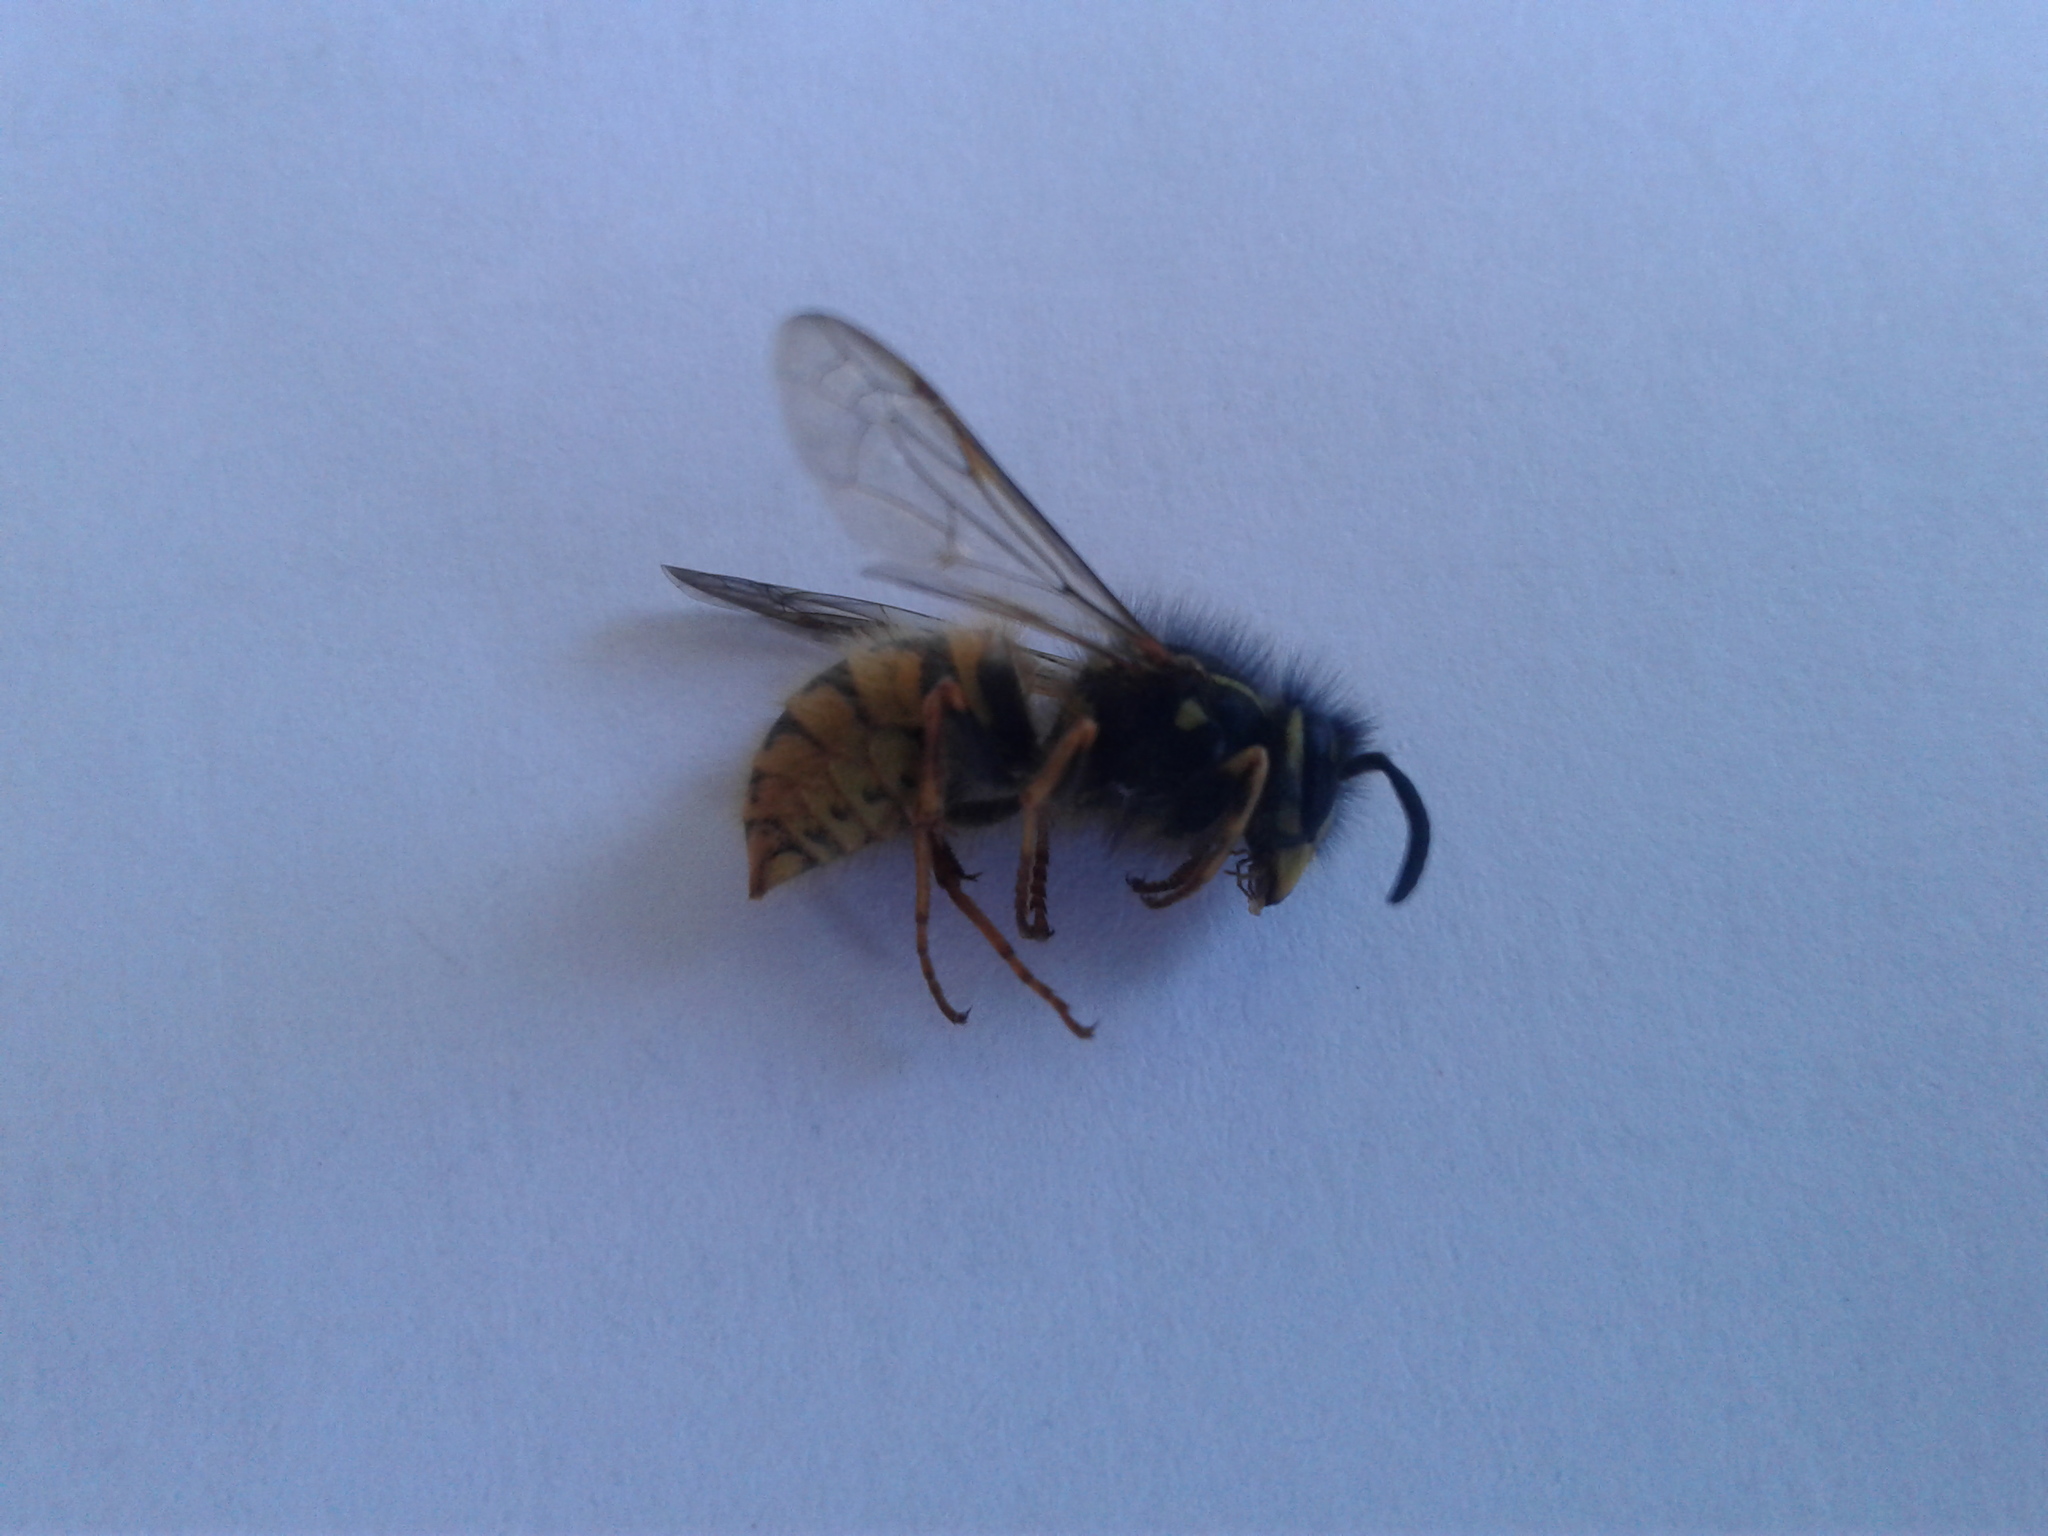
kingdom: Animalia
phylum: Arthropoda
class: Insecta
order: Hymenoptera
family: Vespidae
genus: Vespula
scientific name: Vespula vulgaris
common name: Common wasp
